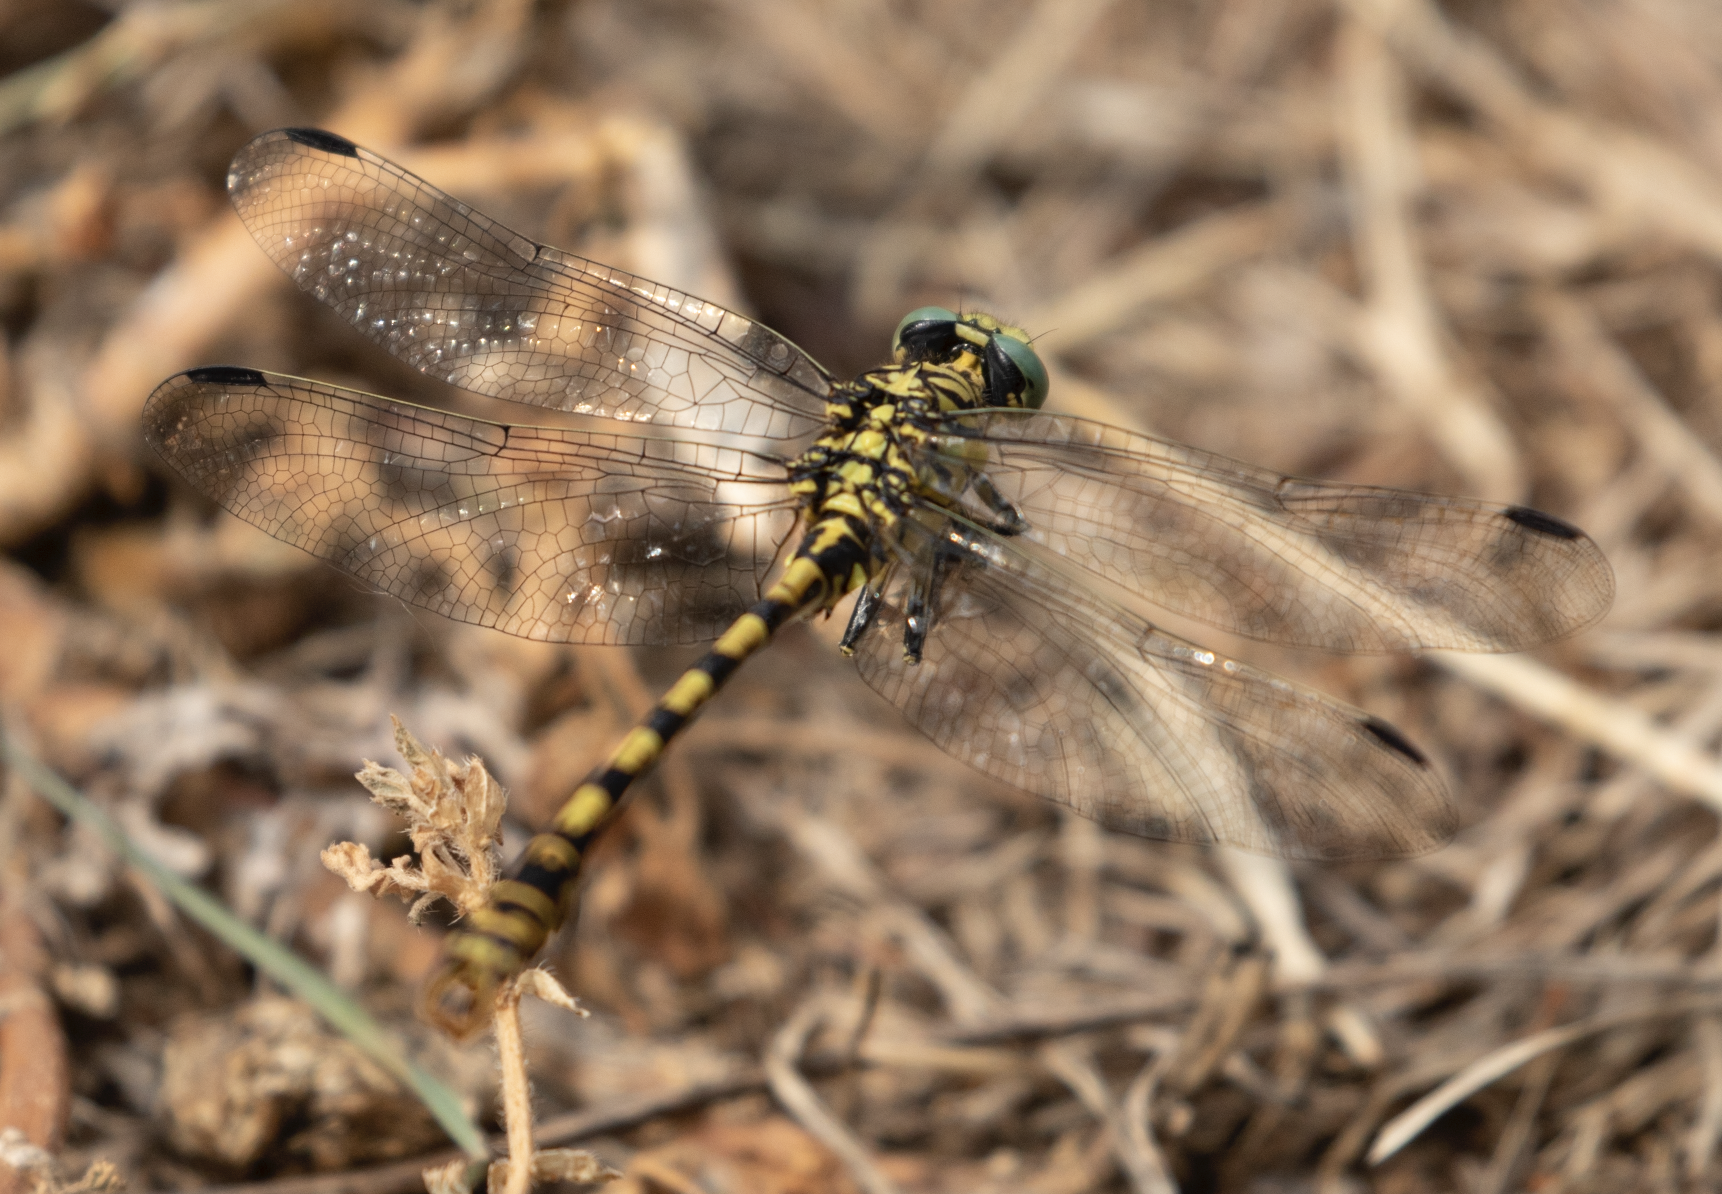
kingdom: Animalia
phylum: Arthropoda
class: Insecta
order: Odonata
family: Gomphidae
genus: Onychogomphus
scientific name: Onychogomphus forcipatus
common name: Small pincertail
